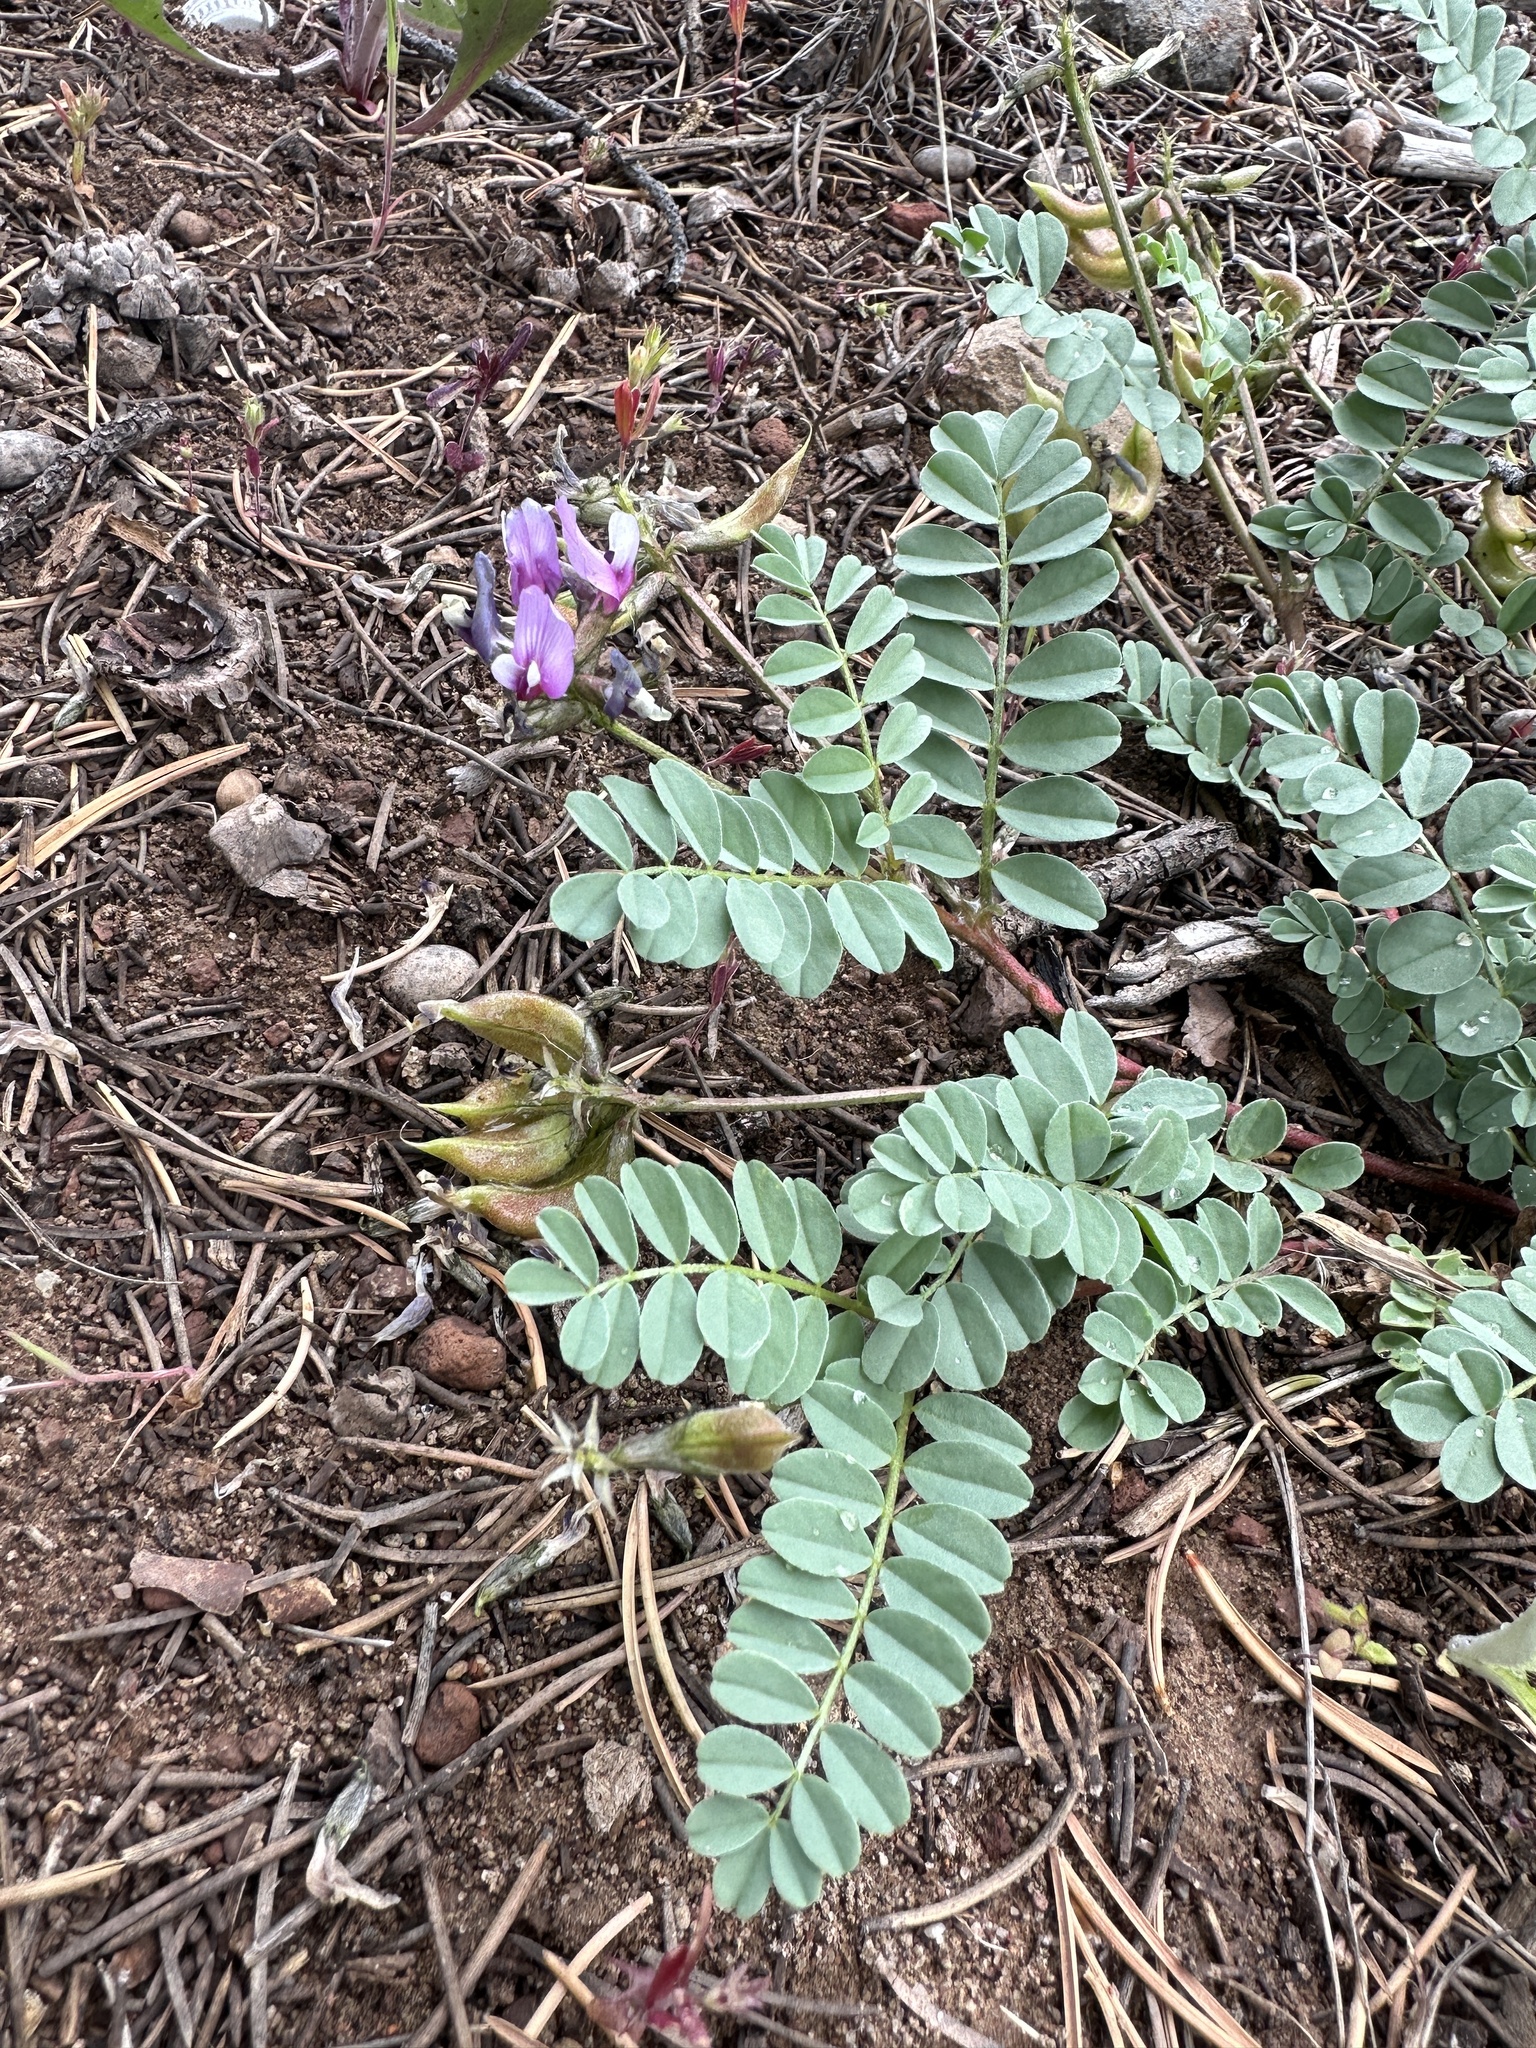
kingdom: Plantae
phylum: Tracheophyta
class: Magnoliopsida
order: Fabales
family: Fabaceae
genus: Astragalus
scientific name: Astragalus cibarius
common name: Browse milk-vetch
